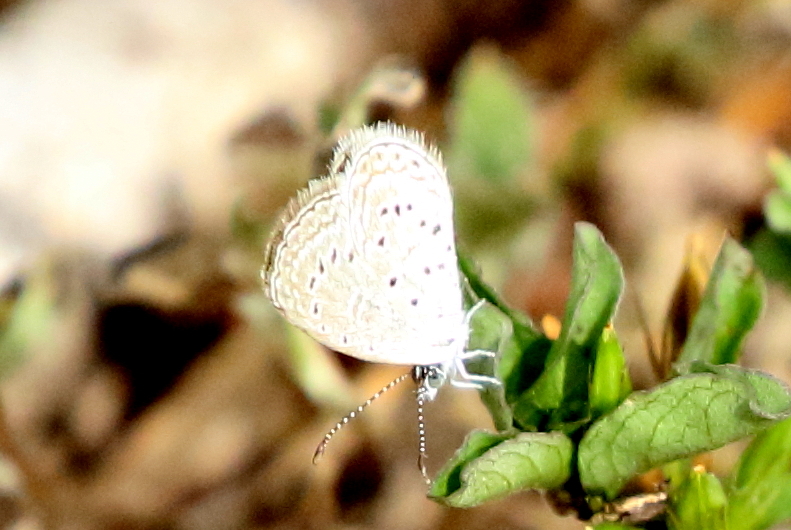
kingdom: Animalia
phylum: Arthropoda
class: Insecta
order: Lepidoptera
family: Lycaenidae
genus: Zizula
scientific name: Zizula hylax
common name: Gaika blue
